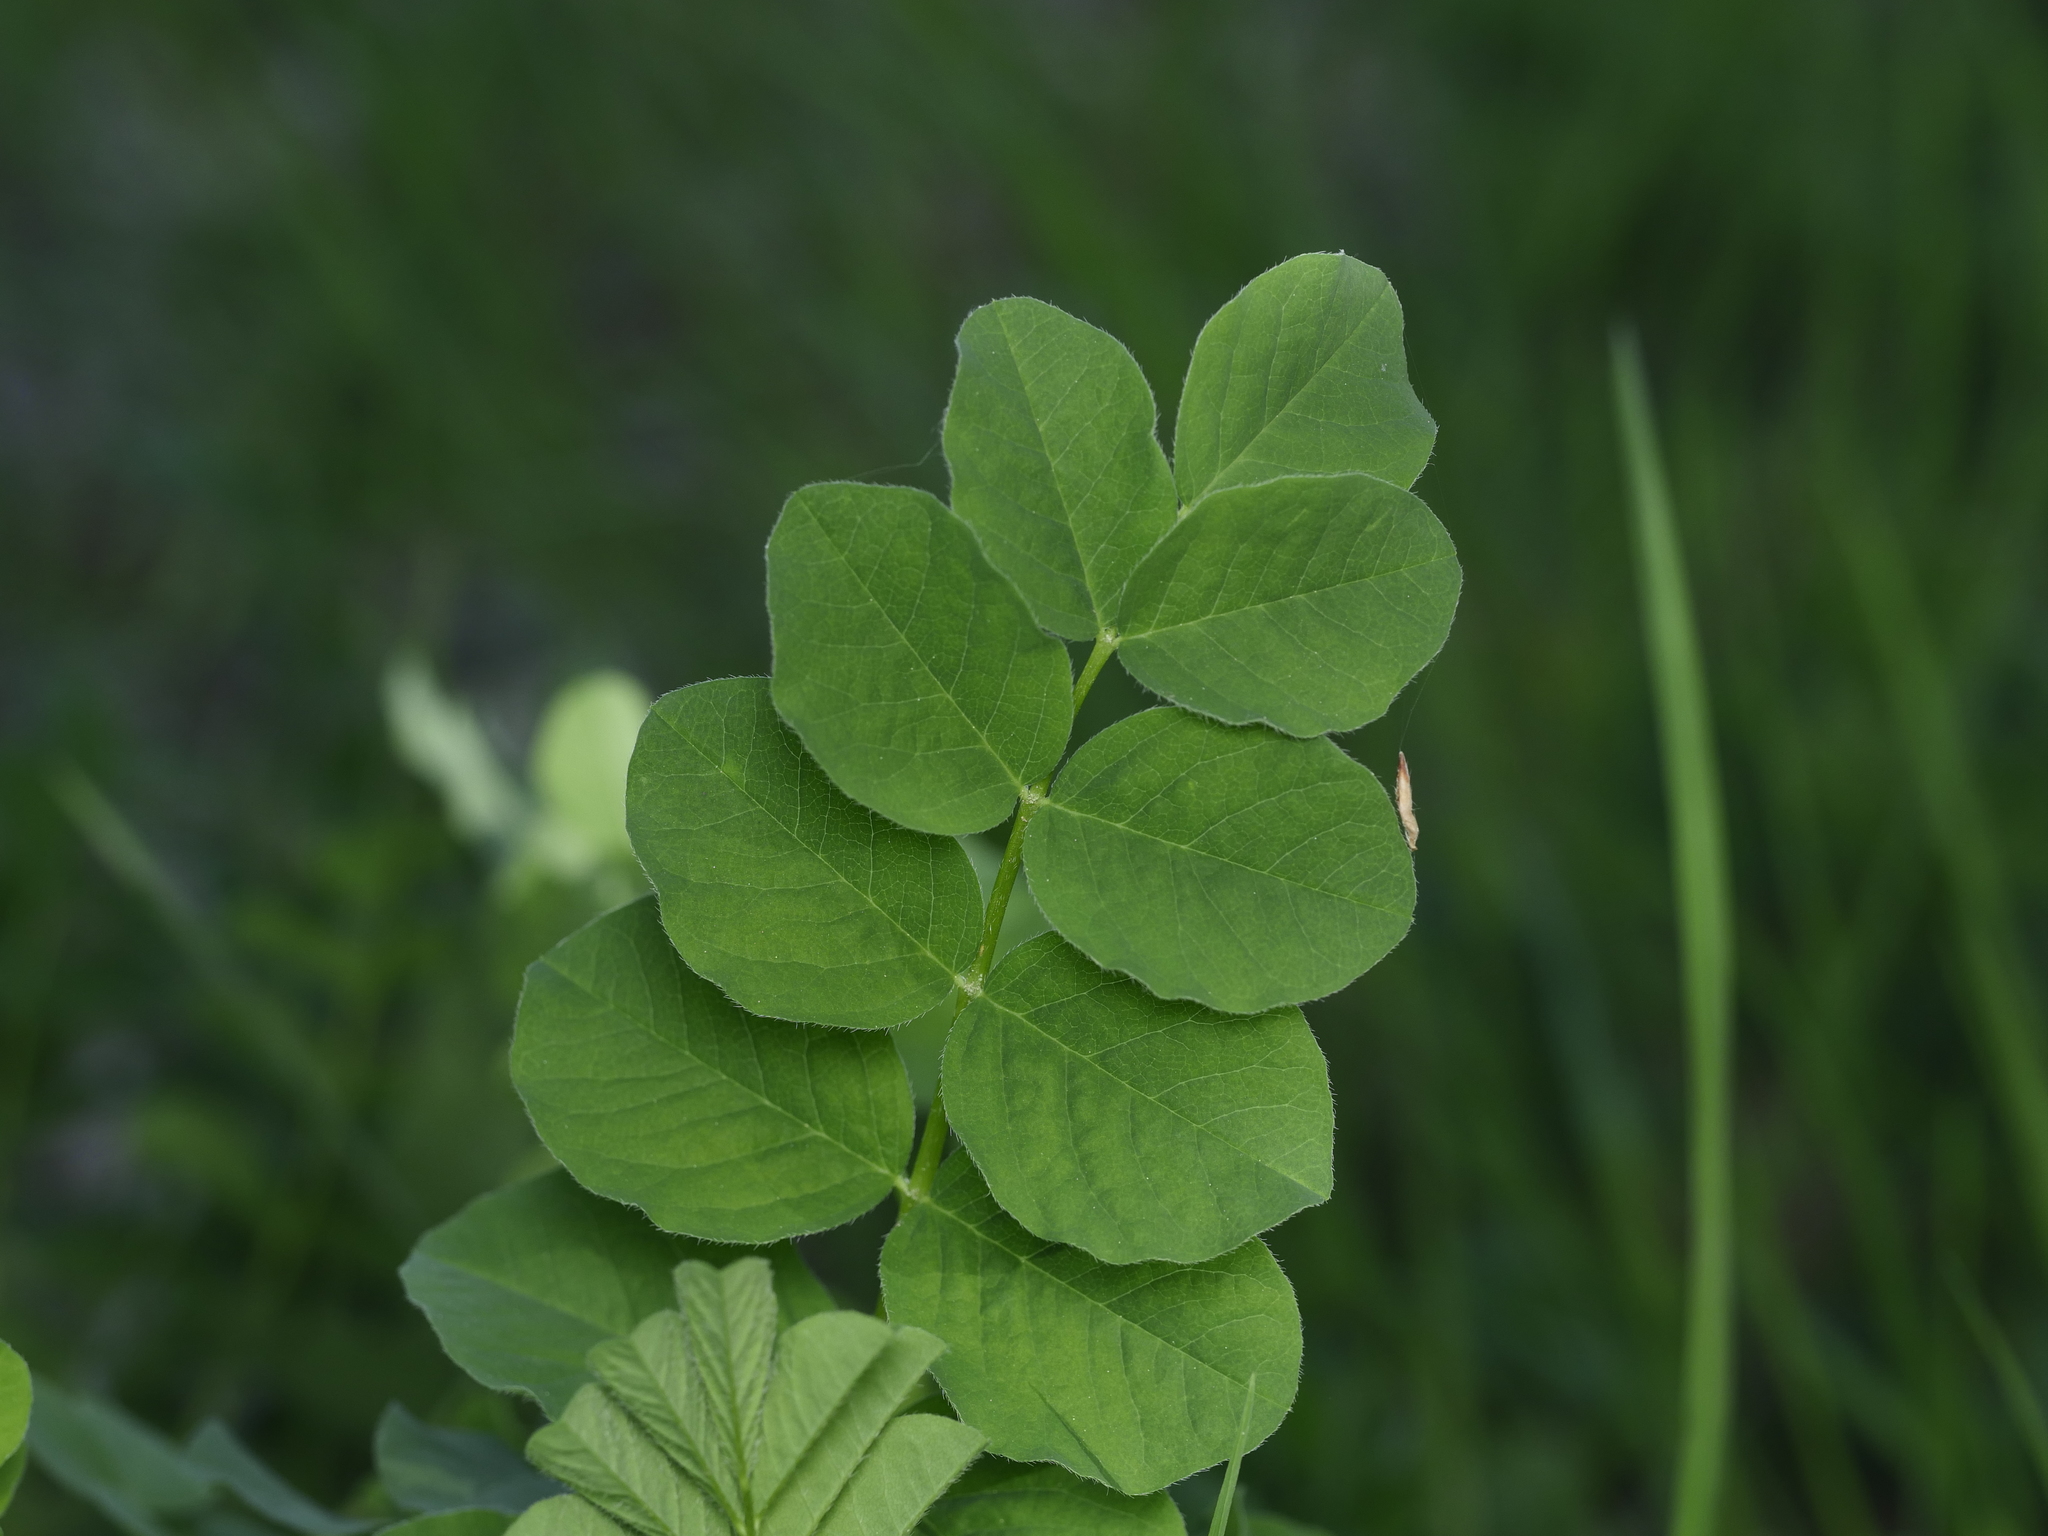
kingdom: Plantae
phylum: Tracheophyta
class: Magnoliopsida
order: Fabales
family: Fabaceae
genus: Astragalus
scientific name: Astragalus glycyphyllos
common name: Wild liquorice
